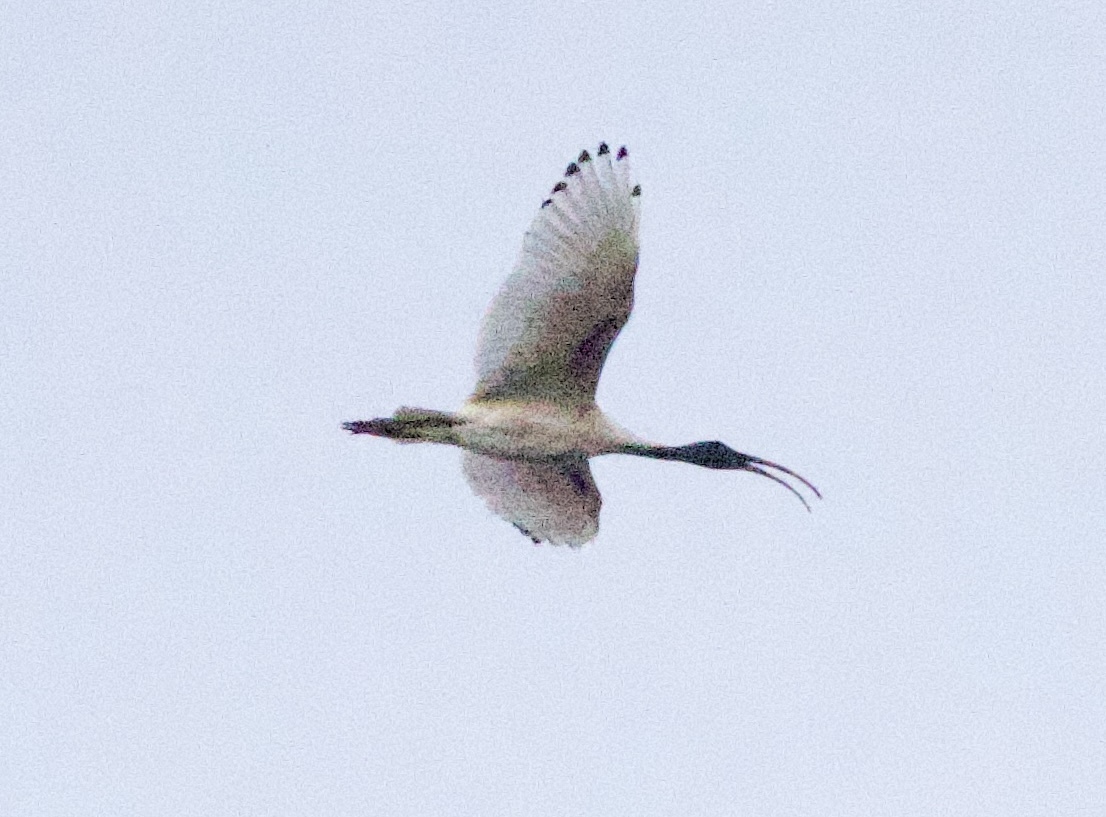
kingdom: Animalia
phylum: Chordata
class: Aves
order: Pelecaniformes
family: Threskiornithidae
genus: Threskiornis
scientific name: Threskiornis molucca
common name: Australian white ibis
